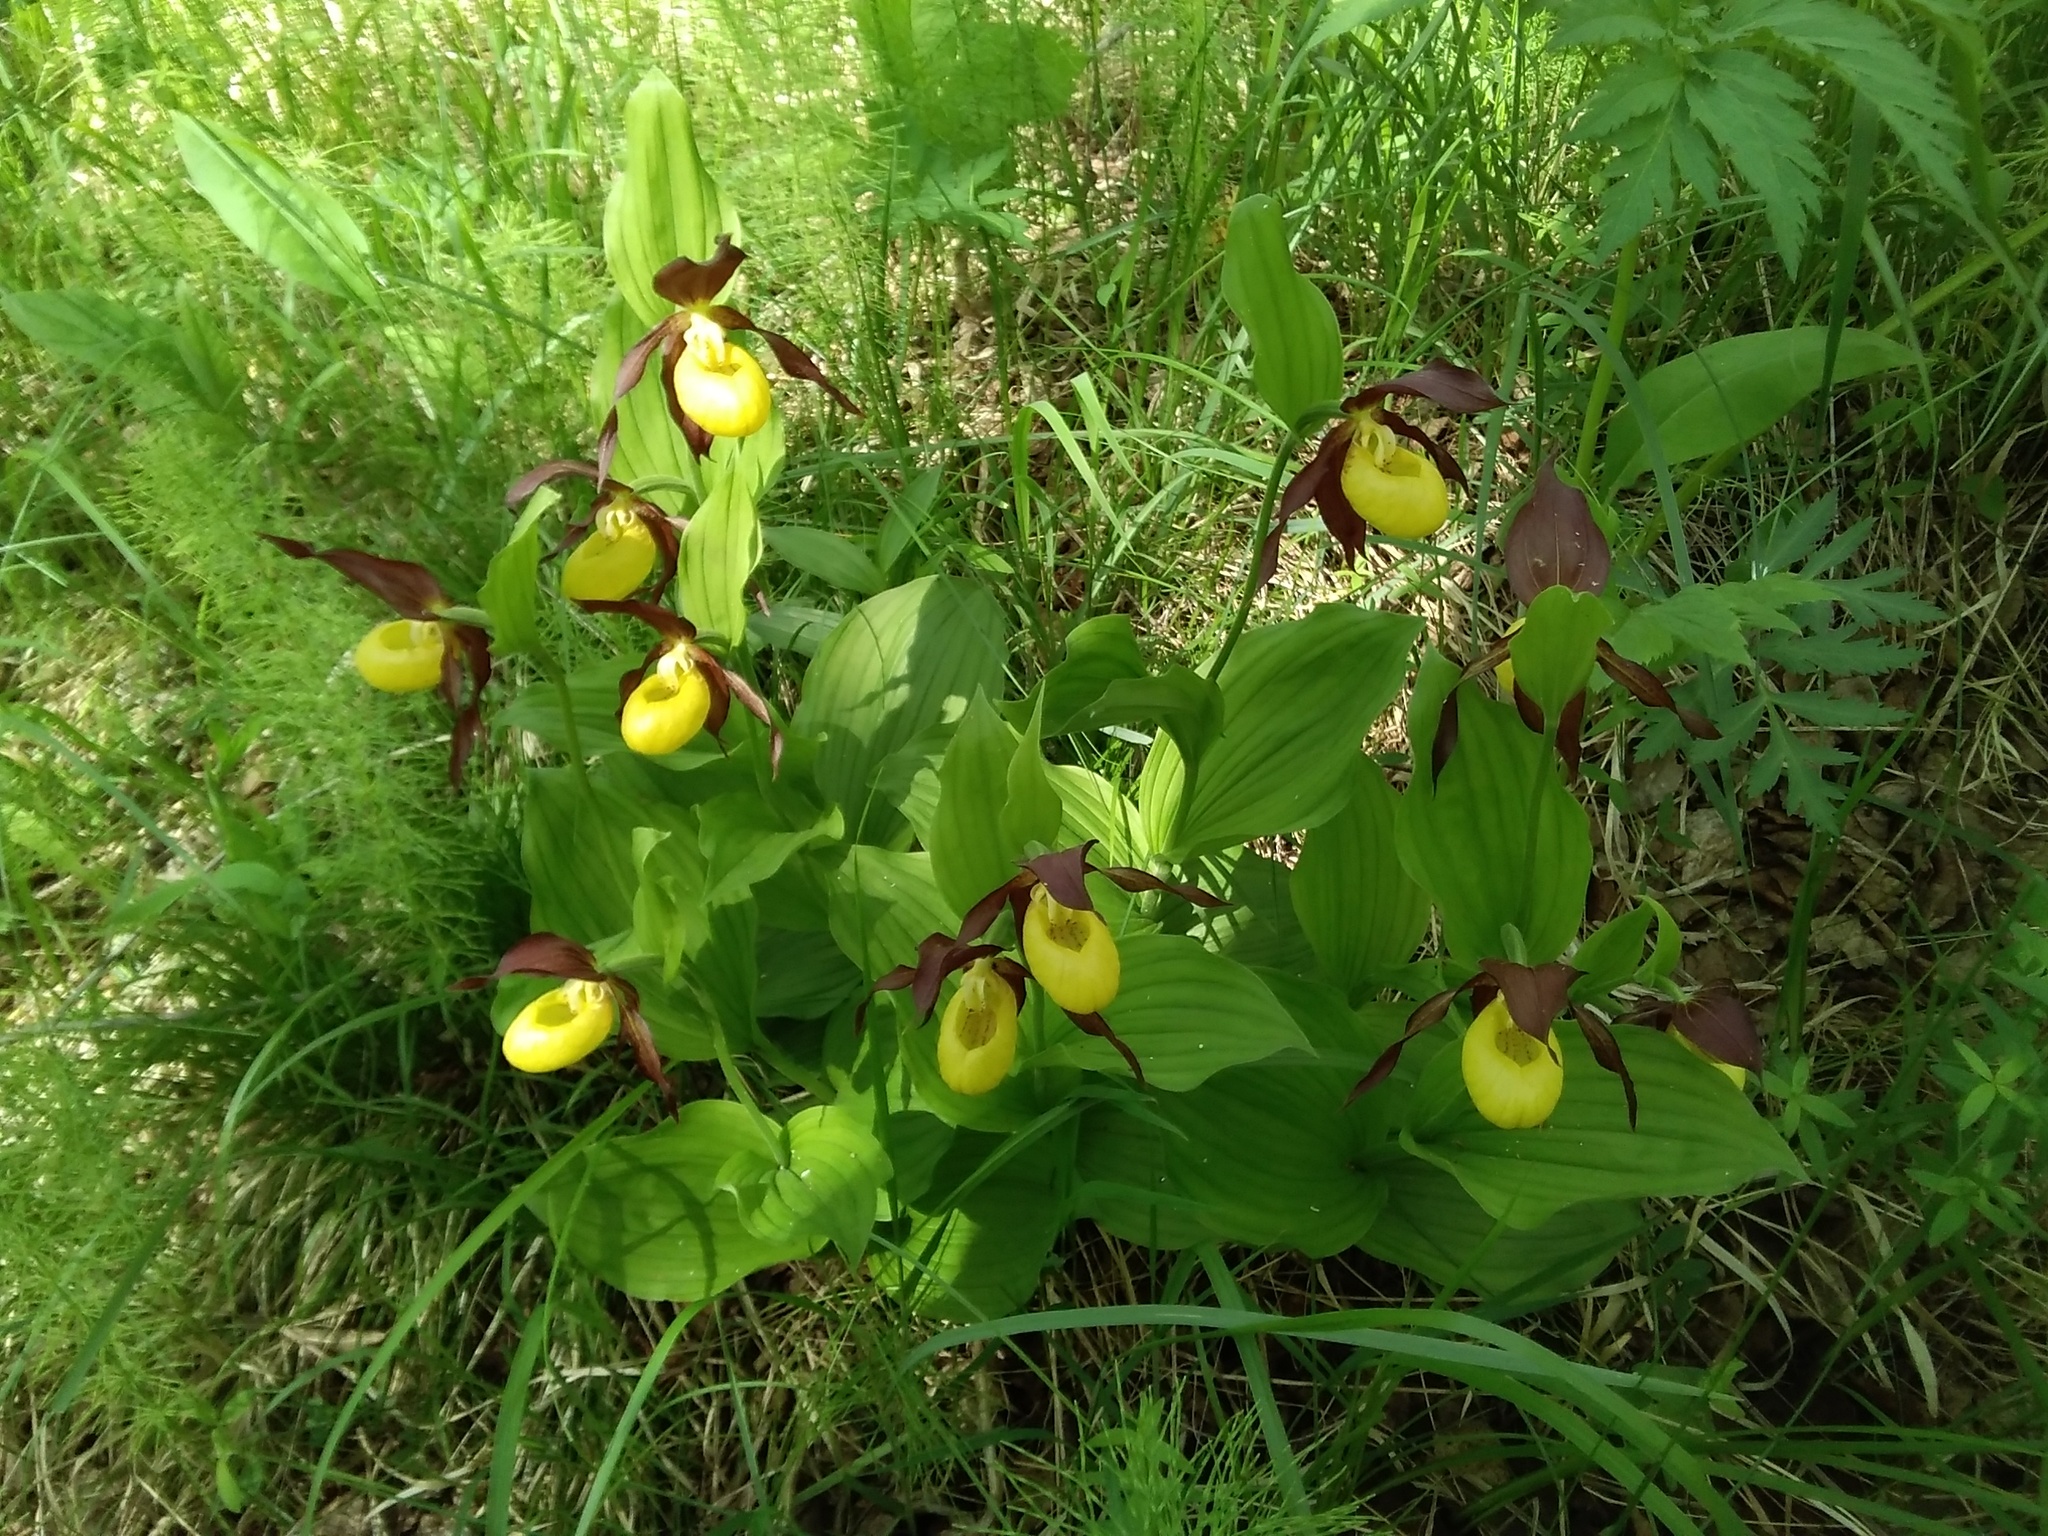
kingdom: Plantae
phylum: Tracheophyta
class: Liliopsida
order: Asparagales
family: Orchidaceae
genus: Cypripedium
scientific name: Cypripedium calceolus
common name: Lady's-slipper
